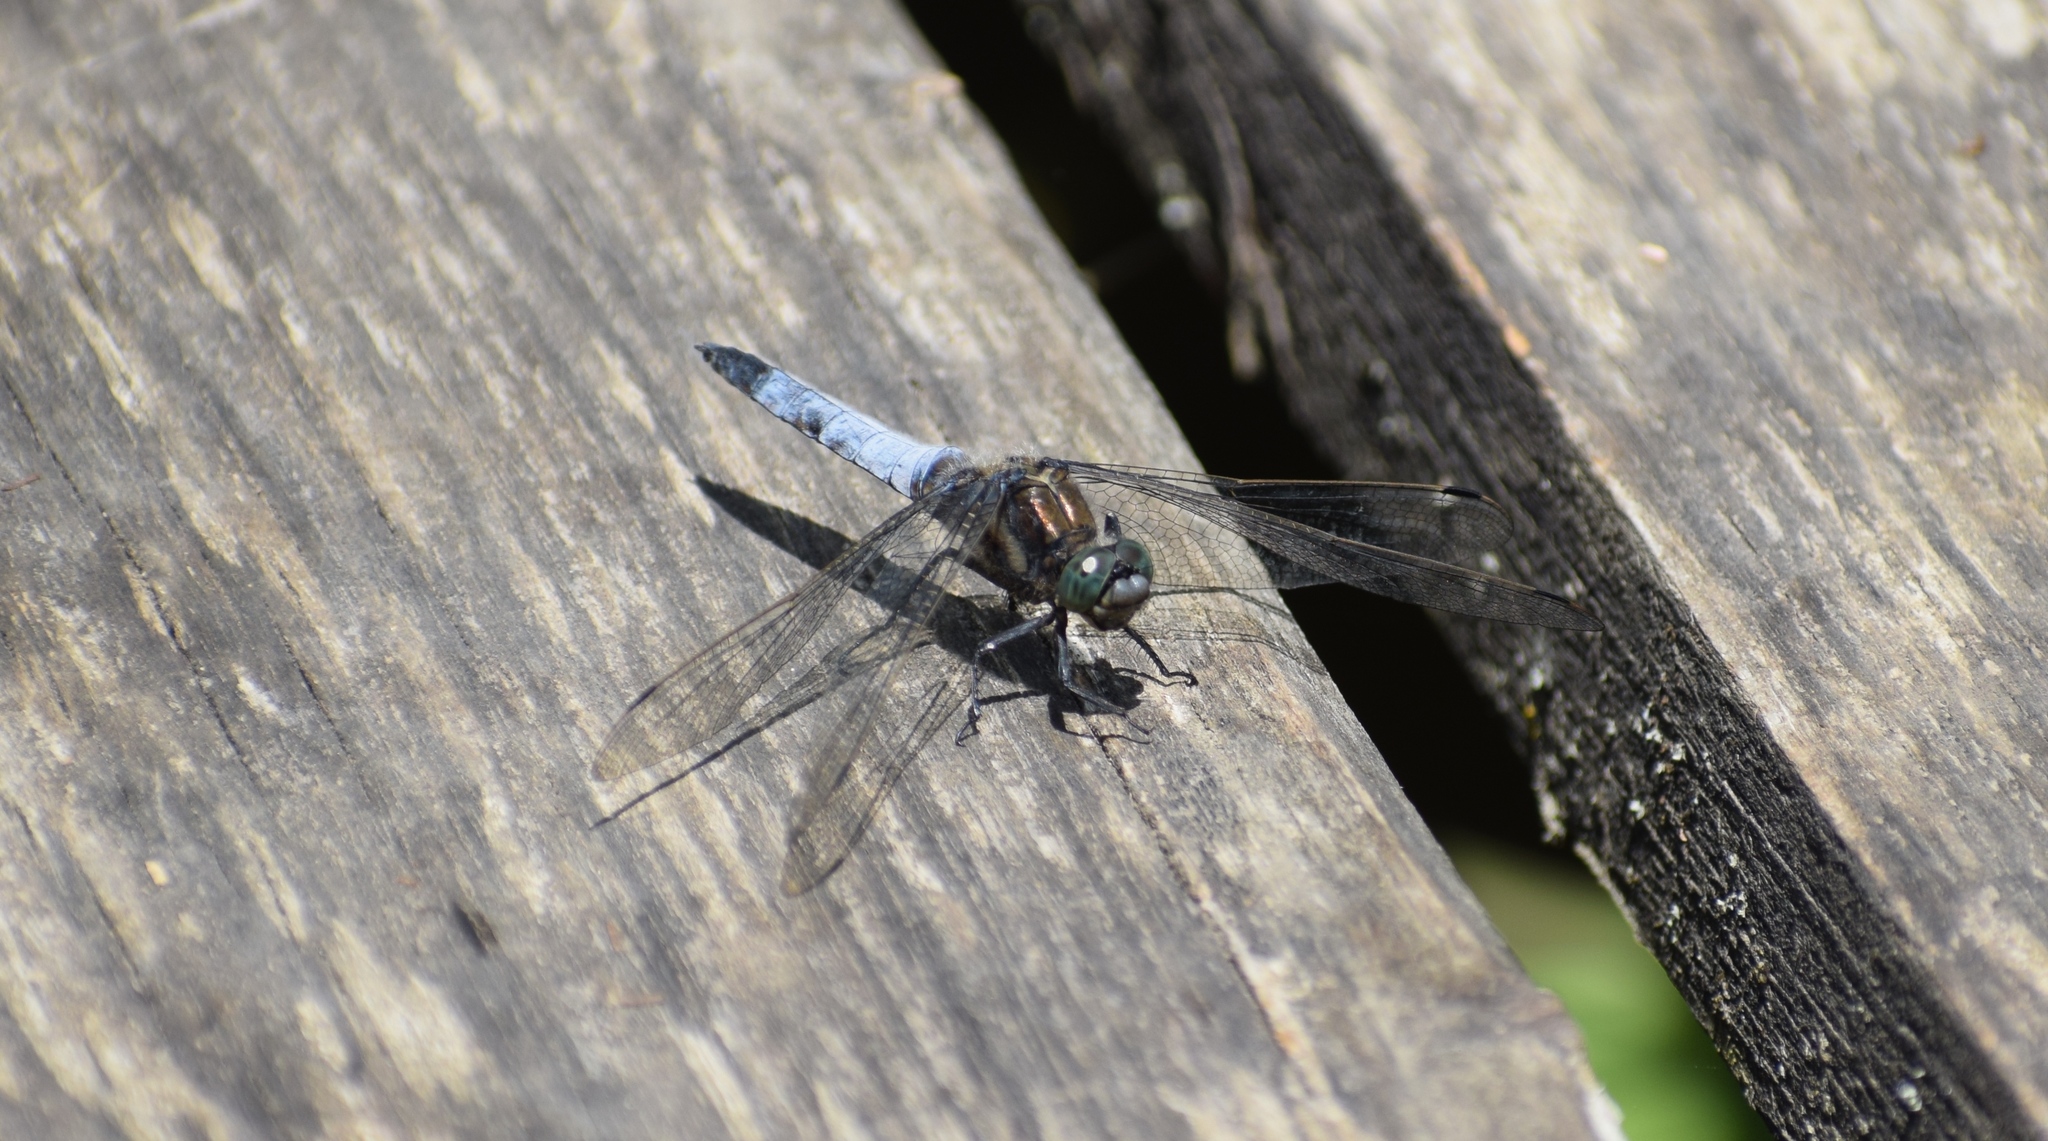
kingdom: Animalia
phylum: Arthropoda
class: Insecta
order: Odonata
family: Libellulidae
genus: Orthetrum
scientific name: Orthetrum cancellatum
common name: Black-tailed skimmer
